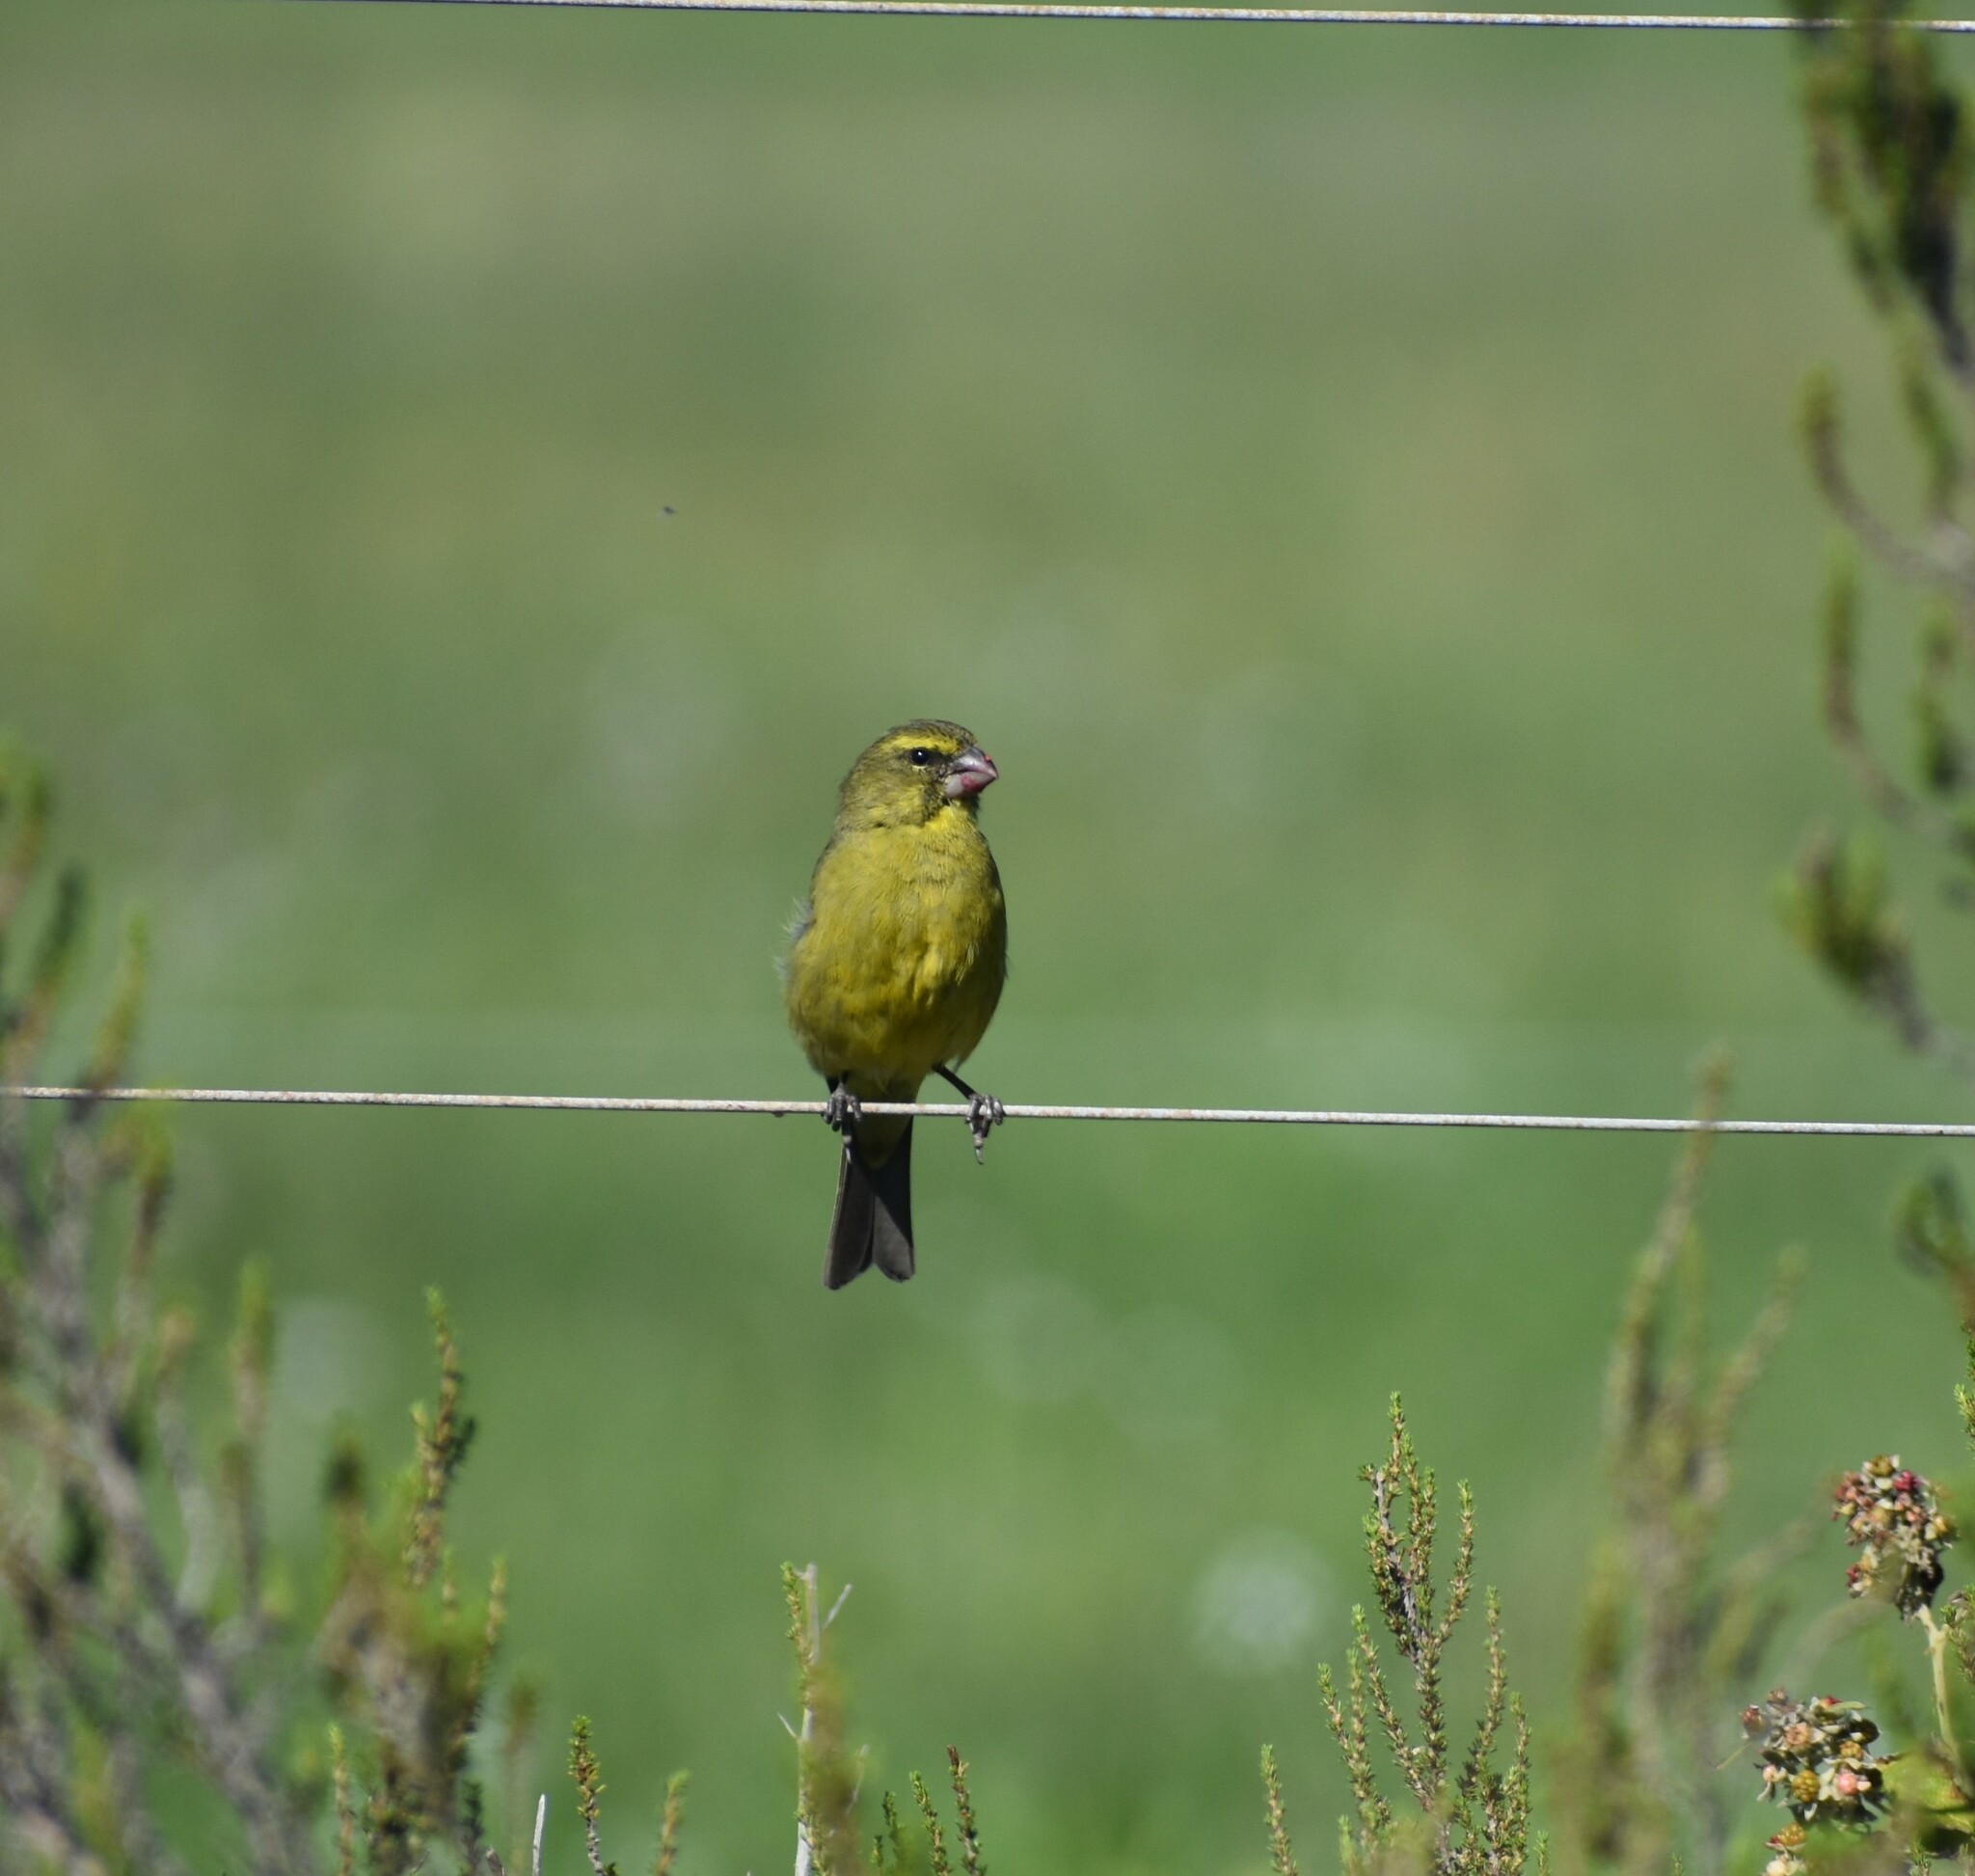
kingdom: Animalia
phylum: Chordata
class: Aves
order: Passeriformes
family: Fringillidae
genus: Crithagra
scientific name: Crithagra sulphurata
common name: Brimstone canary
